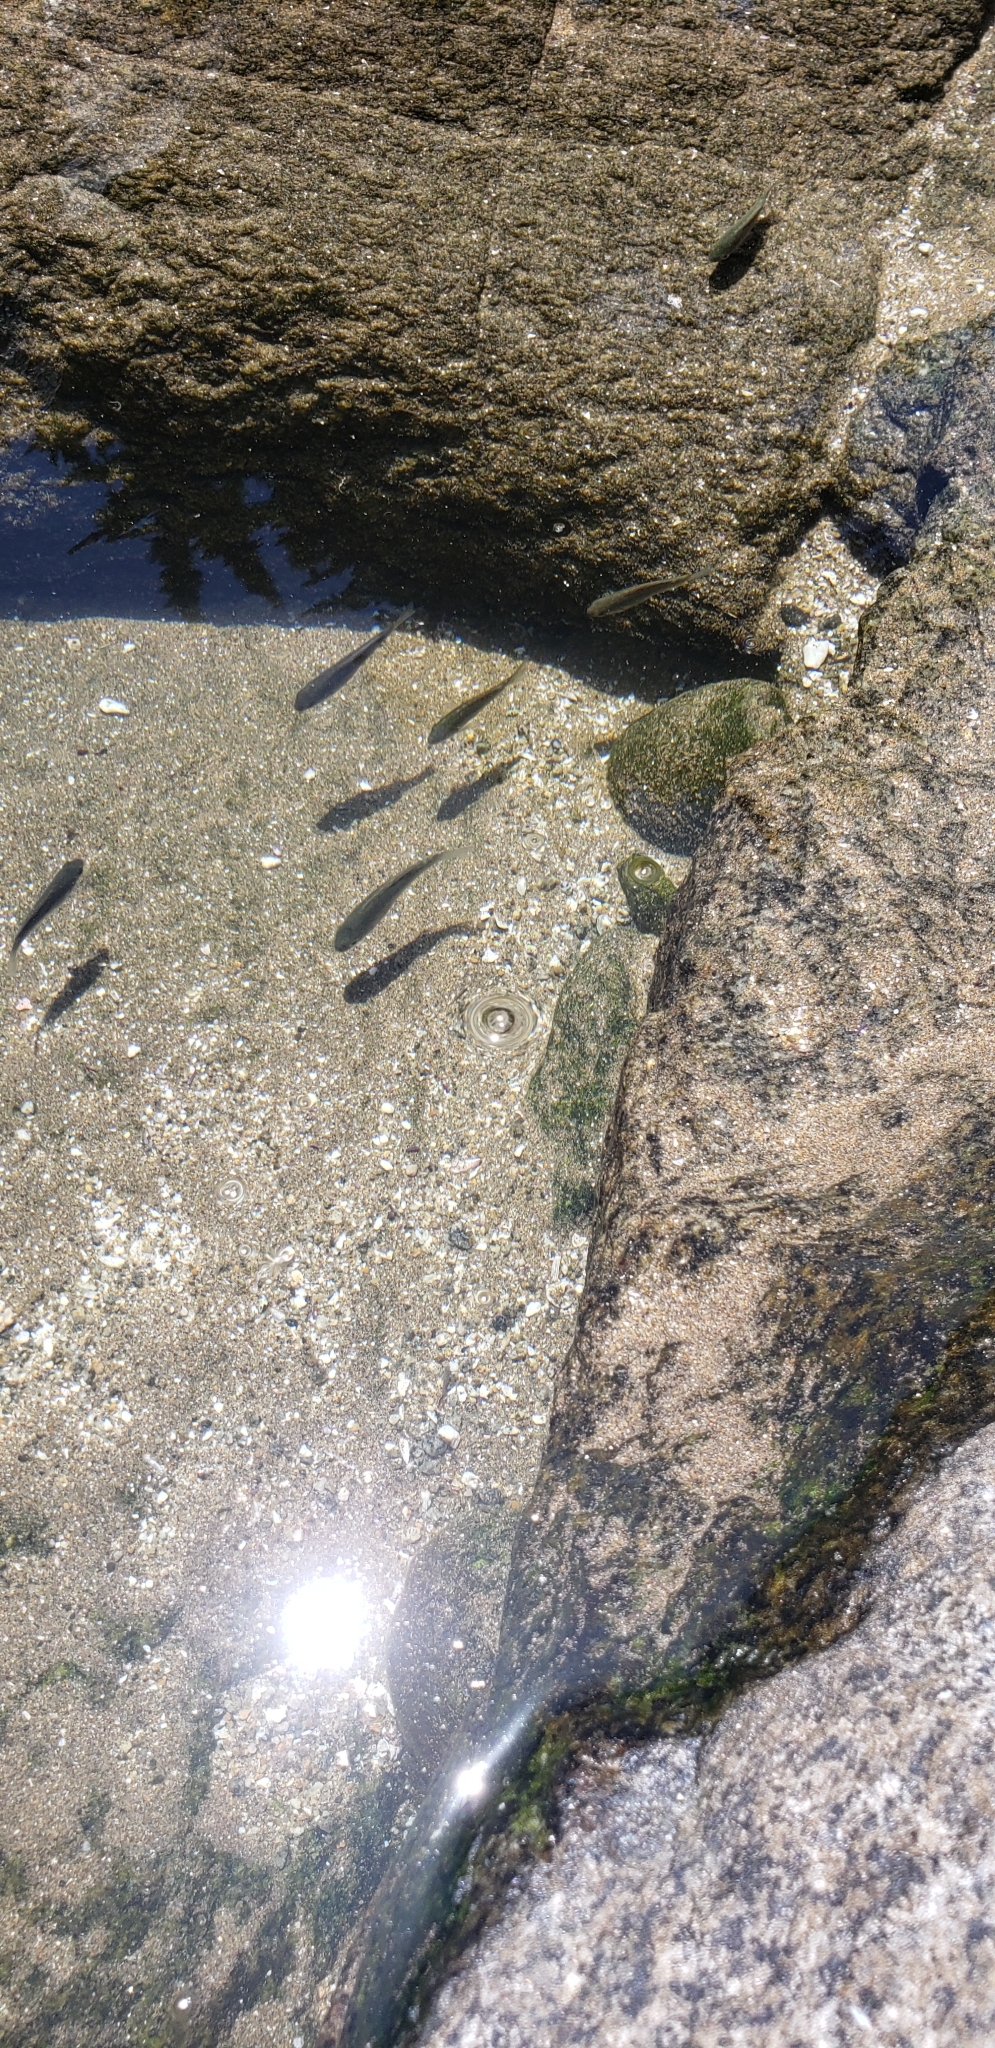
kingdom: Animalia
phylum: Chordata
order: Perciformes
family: Kyphosidae
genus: Graus
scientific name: Graus nigra
